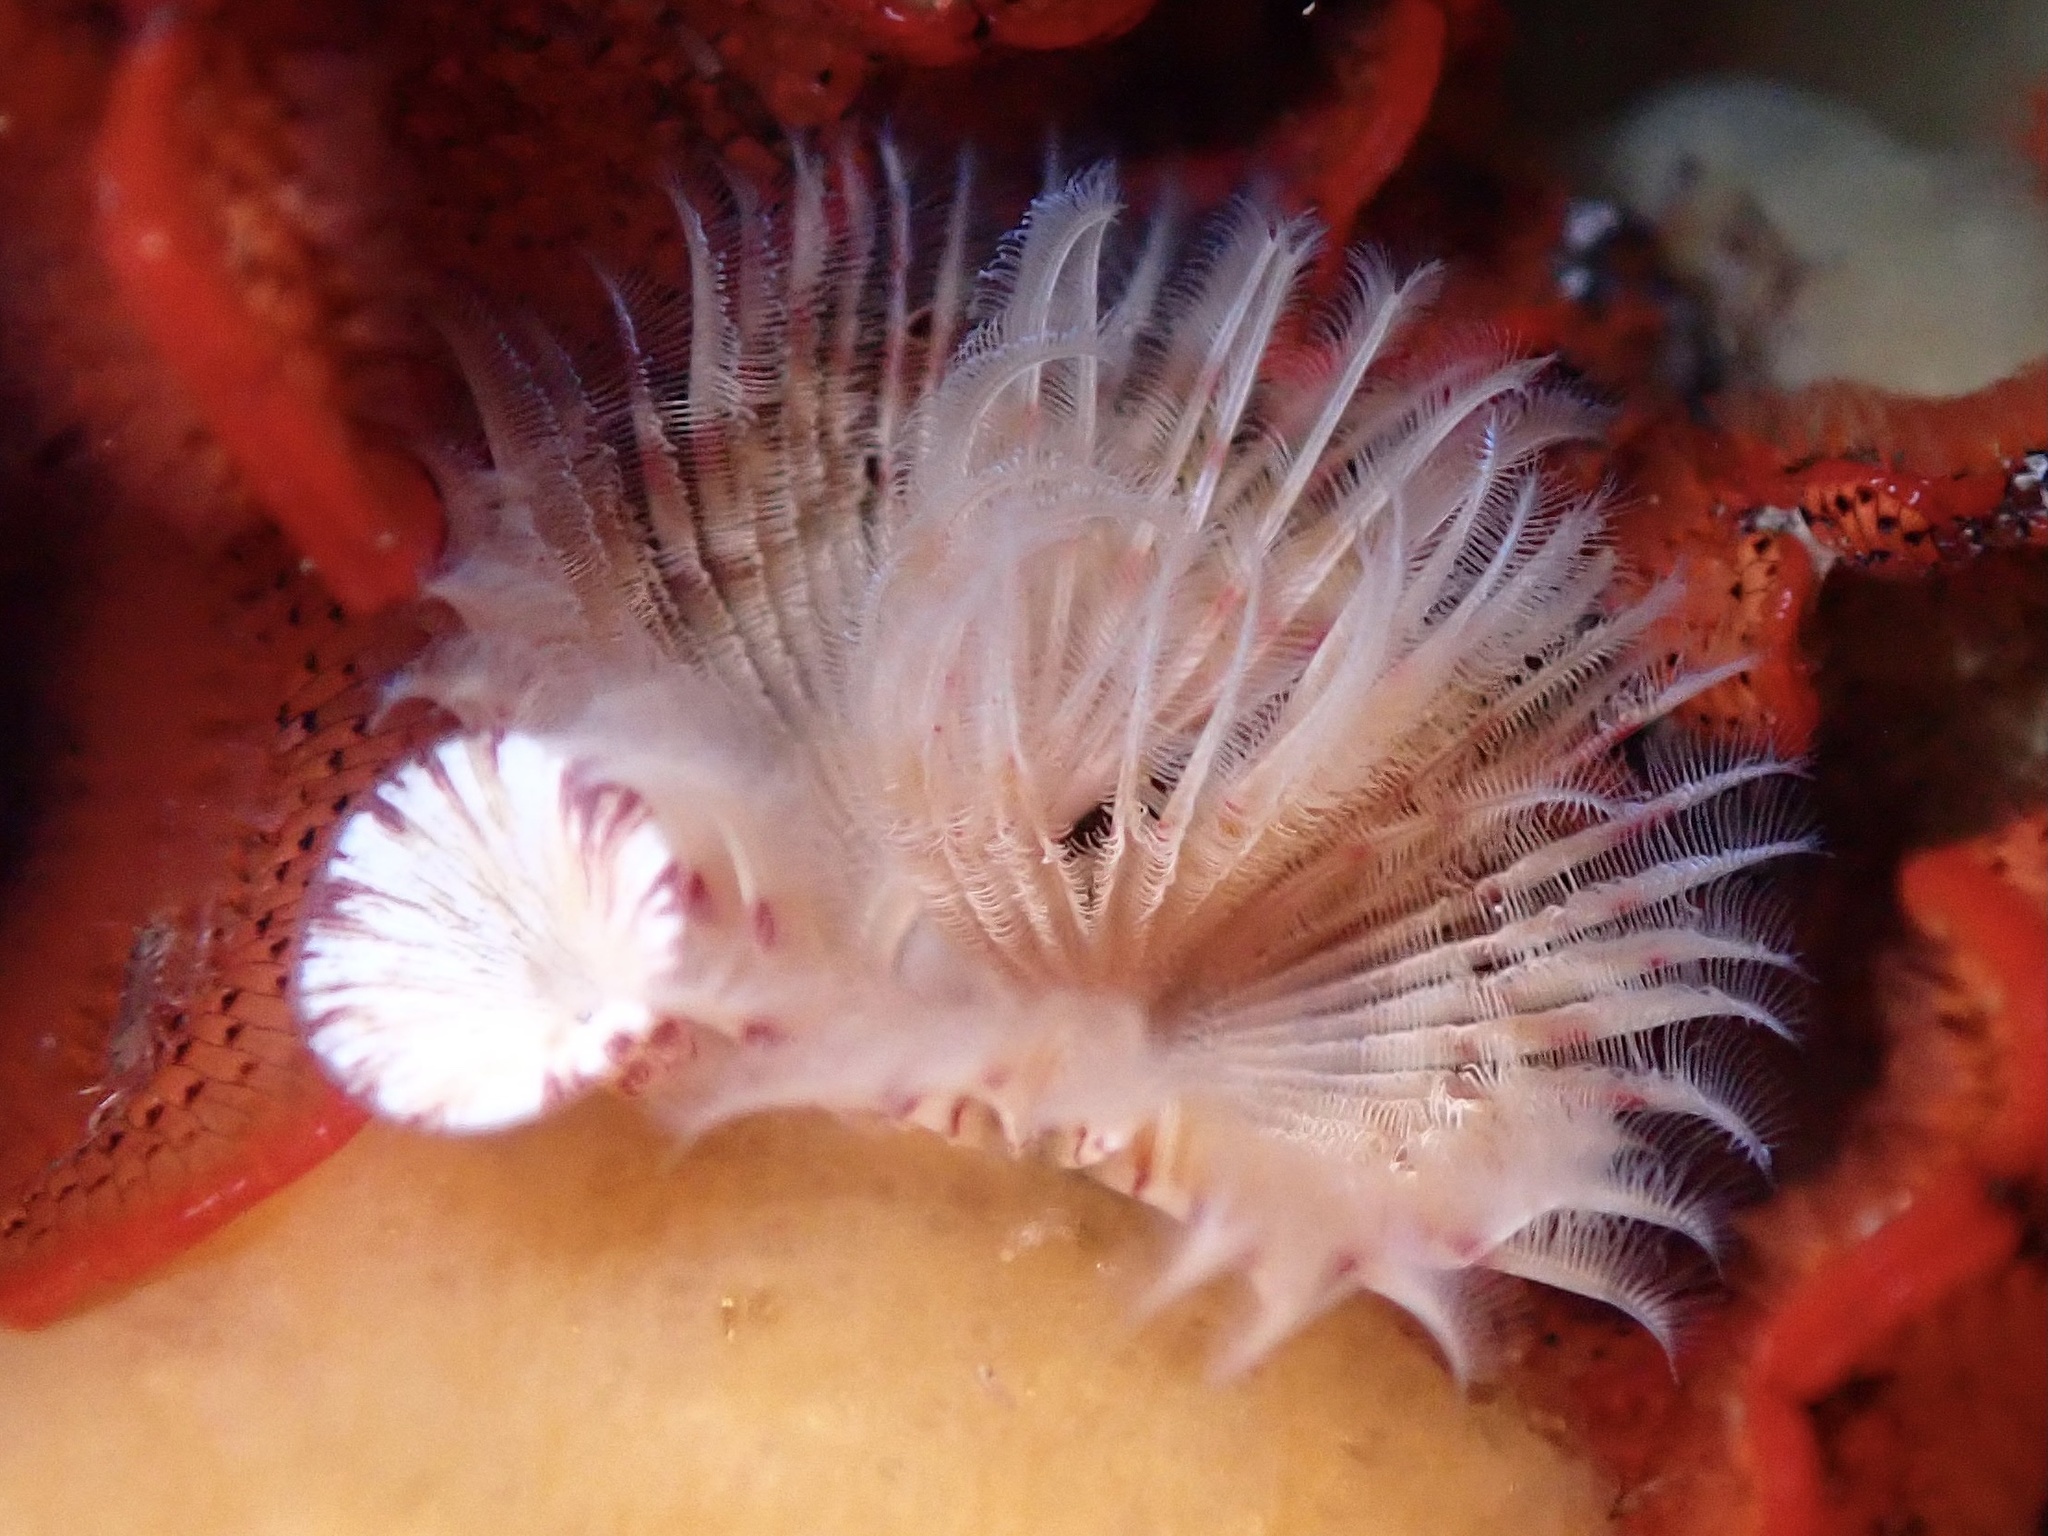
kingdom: Animalia
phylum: Annelida
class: Polychaeta
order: Sabellida
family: Serpulidae
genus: Serpula
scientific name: Serpula columbiana
